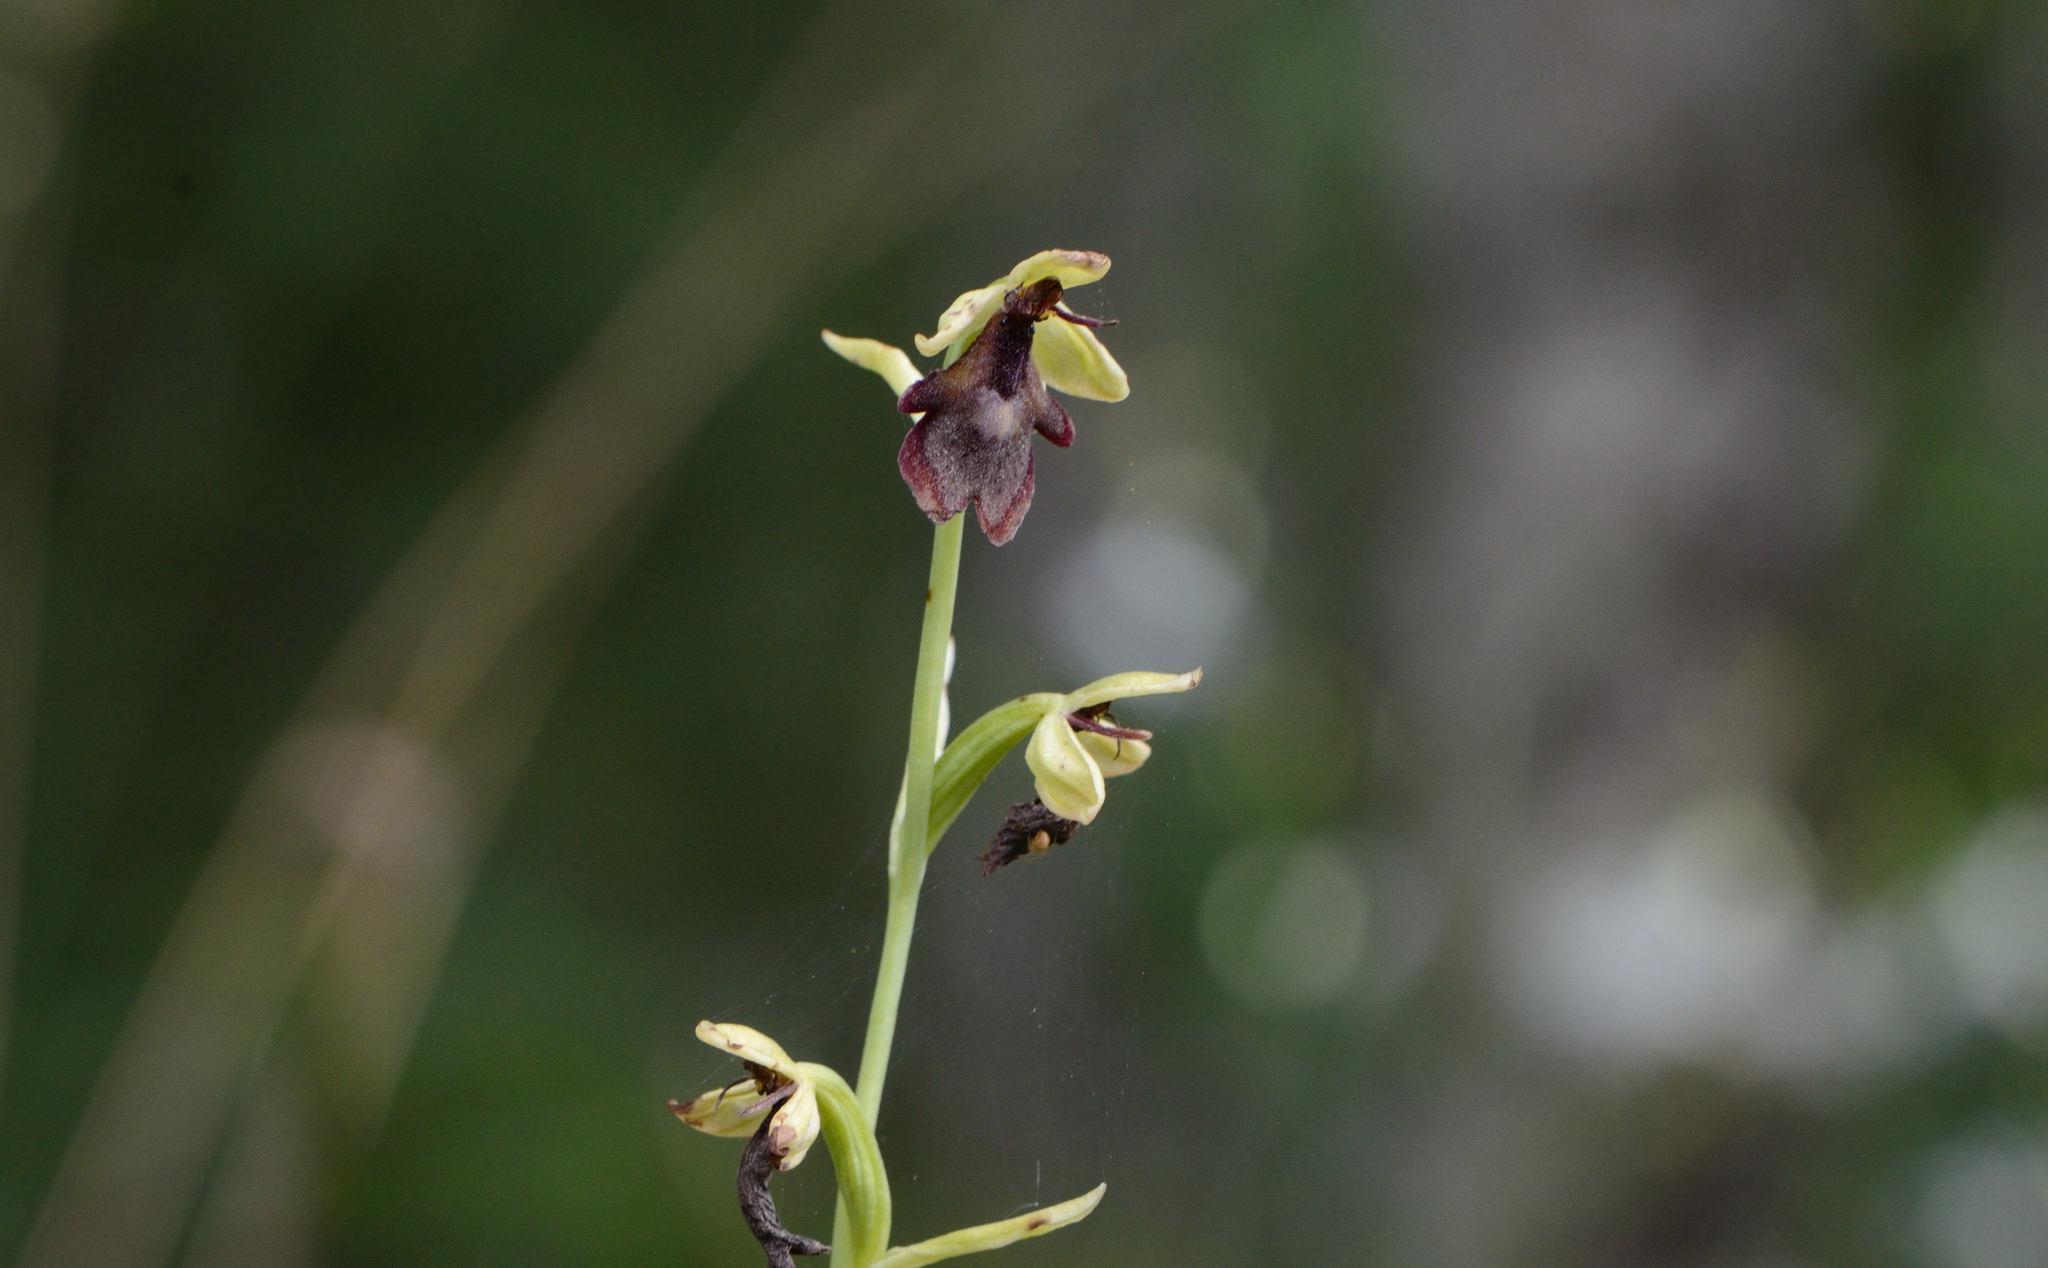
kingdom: Plantae
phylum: Tracheophyta
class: Liliopsida
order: Asparagales
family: Orchidaceae
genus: Ophrys
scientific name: Ophrys insectifera
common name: Fly orchid
